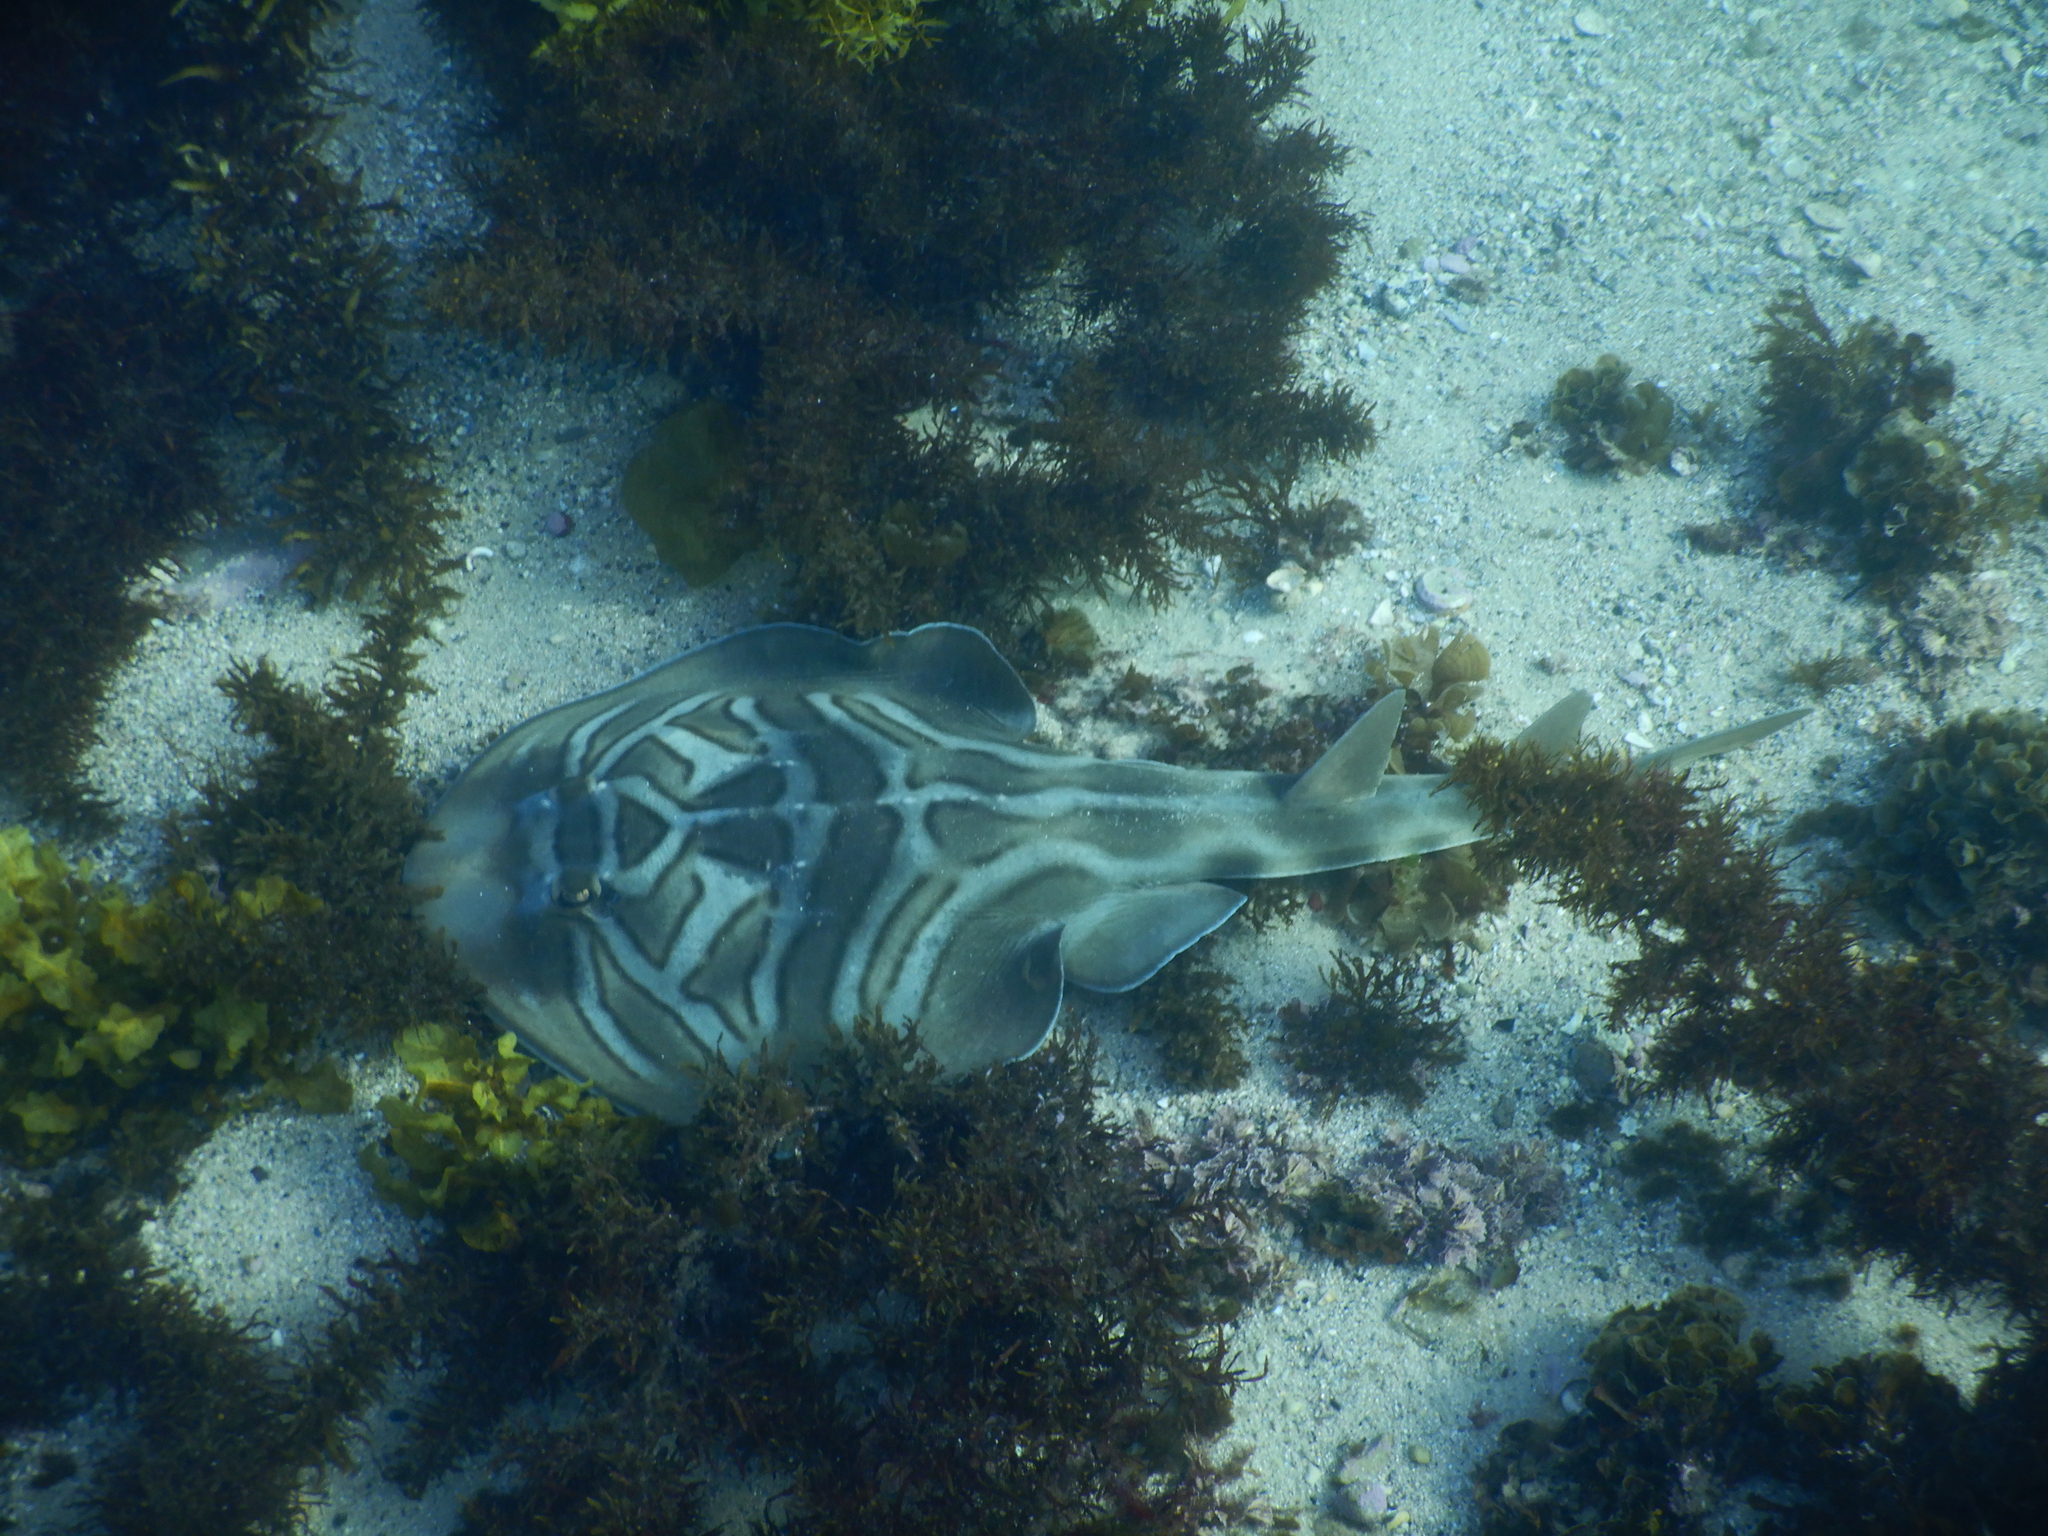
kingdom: Animalia
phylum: Chordata
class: Elasmobranchii
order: Rhinopristiformes
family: Rhinobatidae
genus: Trygonorrhina
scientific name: Trygonorrhina fasciata
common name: Southern fiddler
